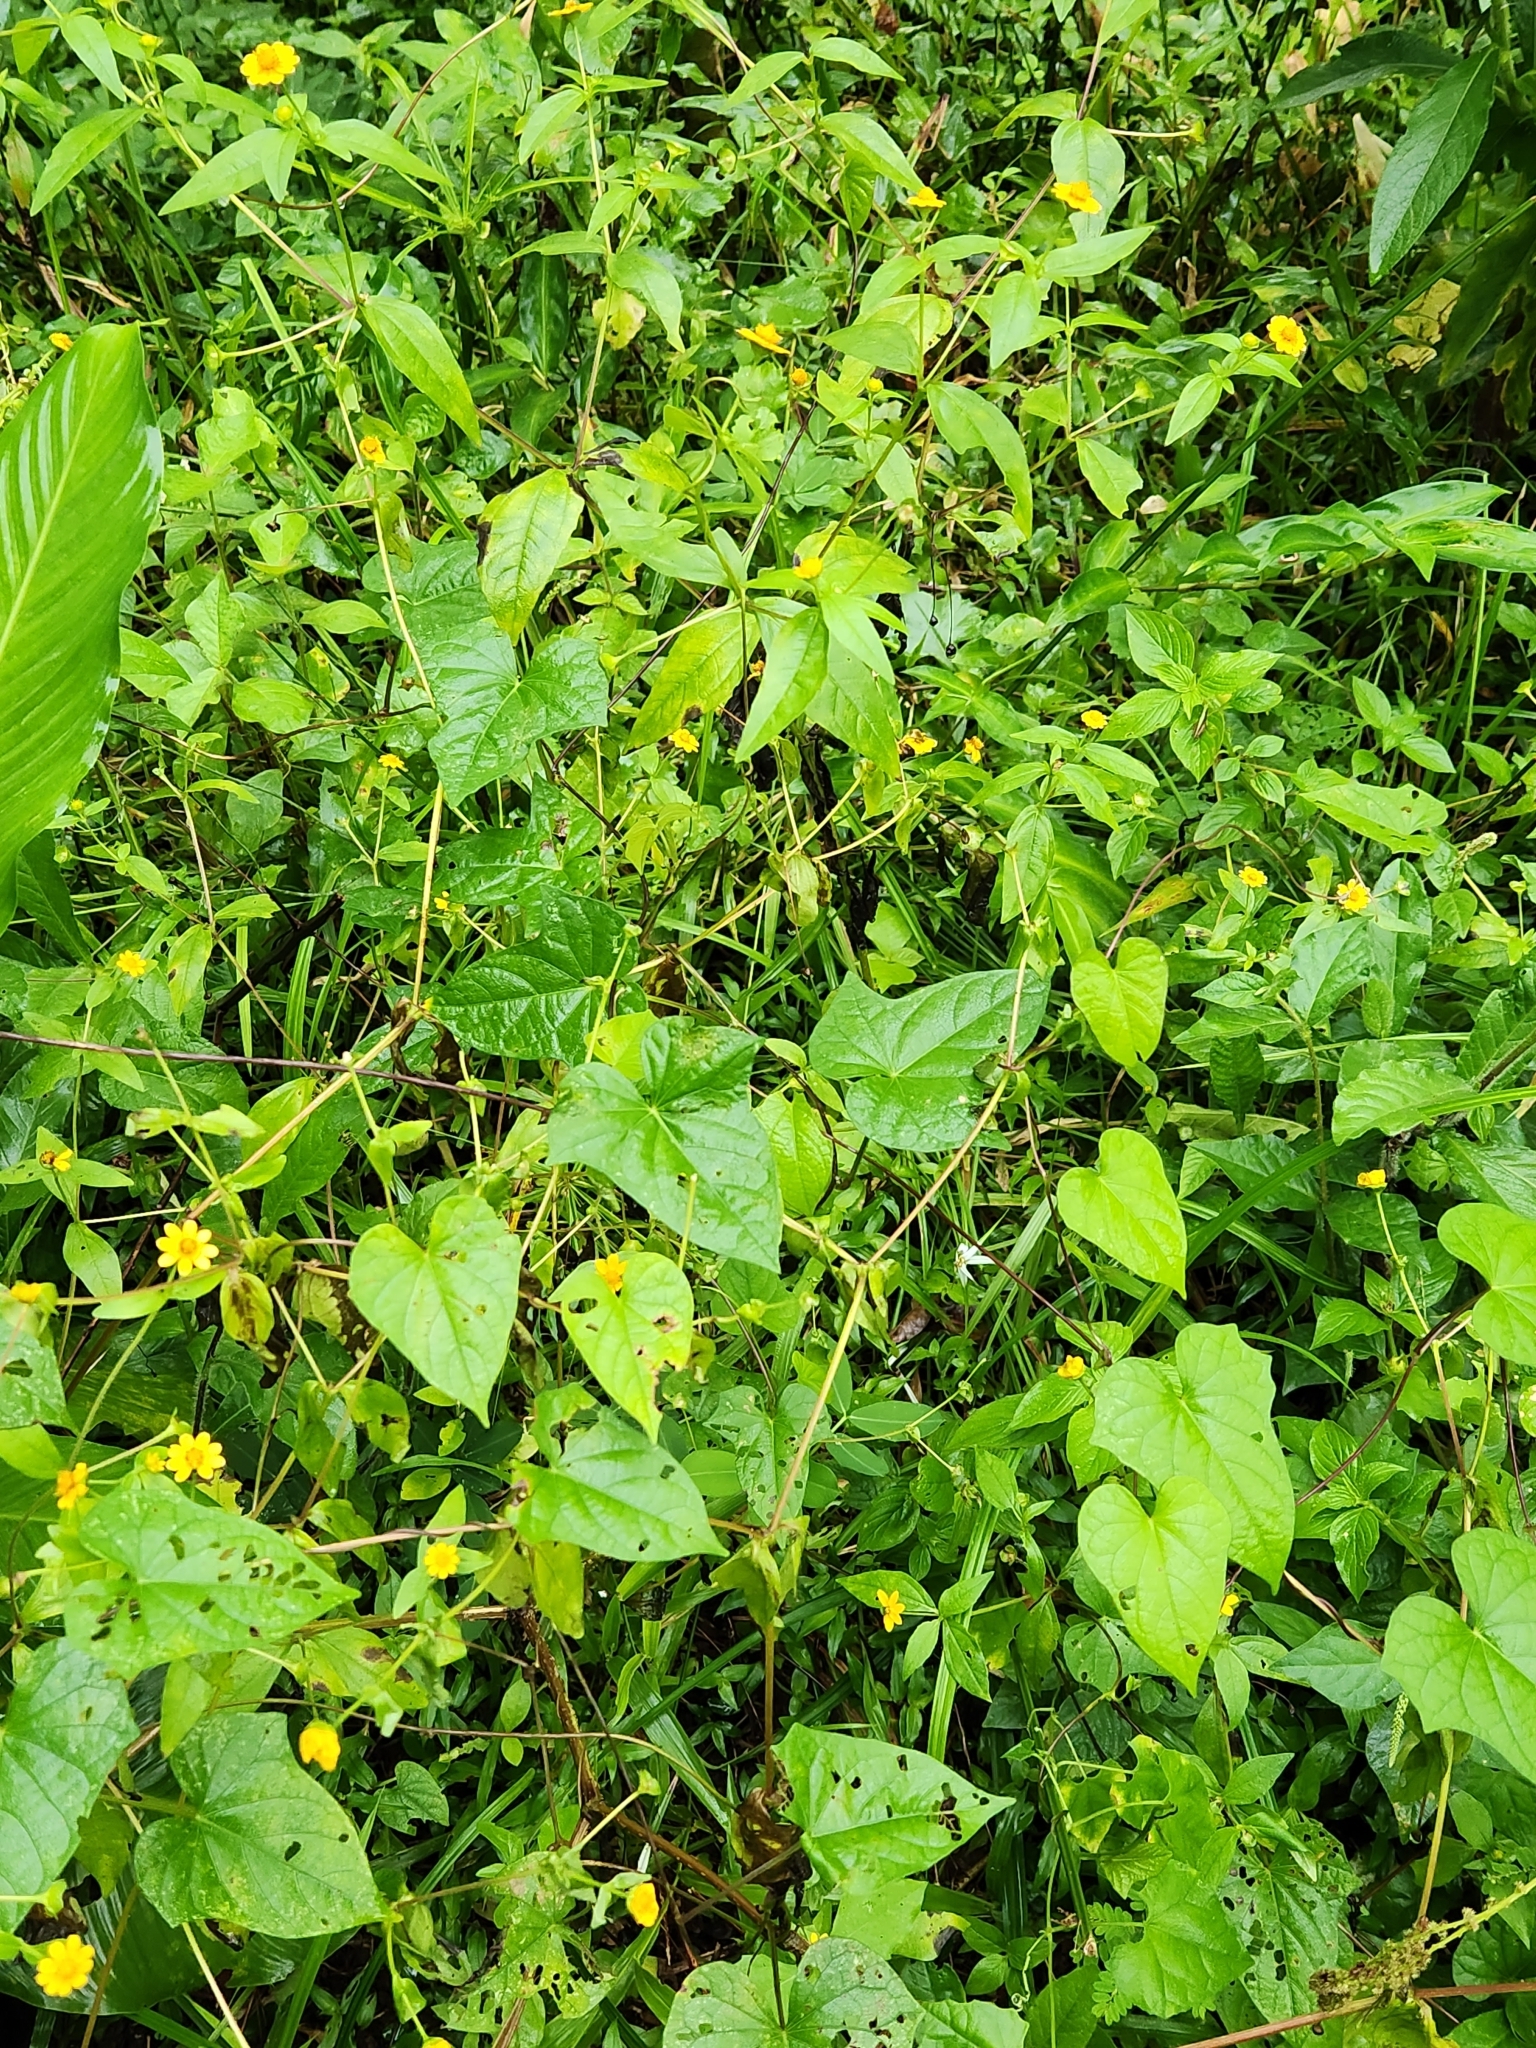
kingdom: Plantae
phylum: Tracheophyta
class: Magnoliopsida
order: Asterales
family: Asteraceae
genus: Melampodium
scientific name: Melampodium divaricatum
